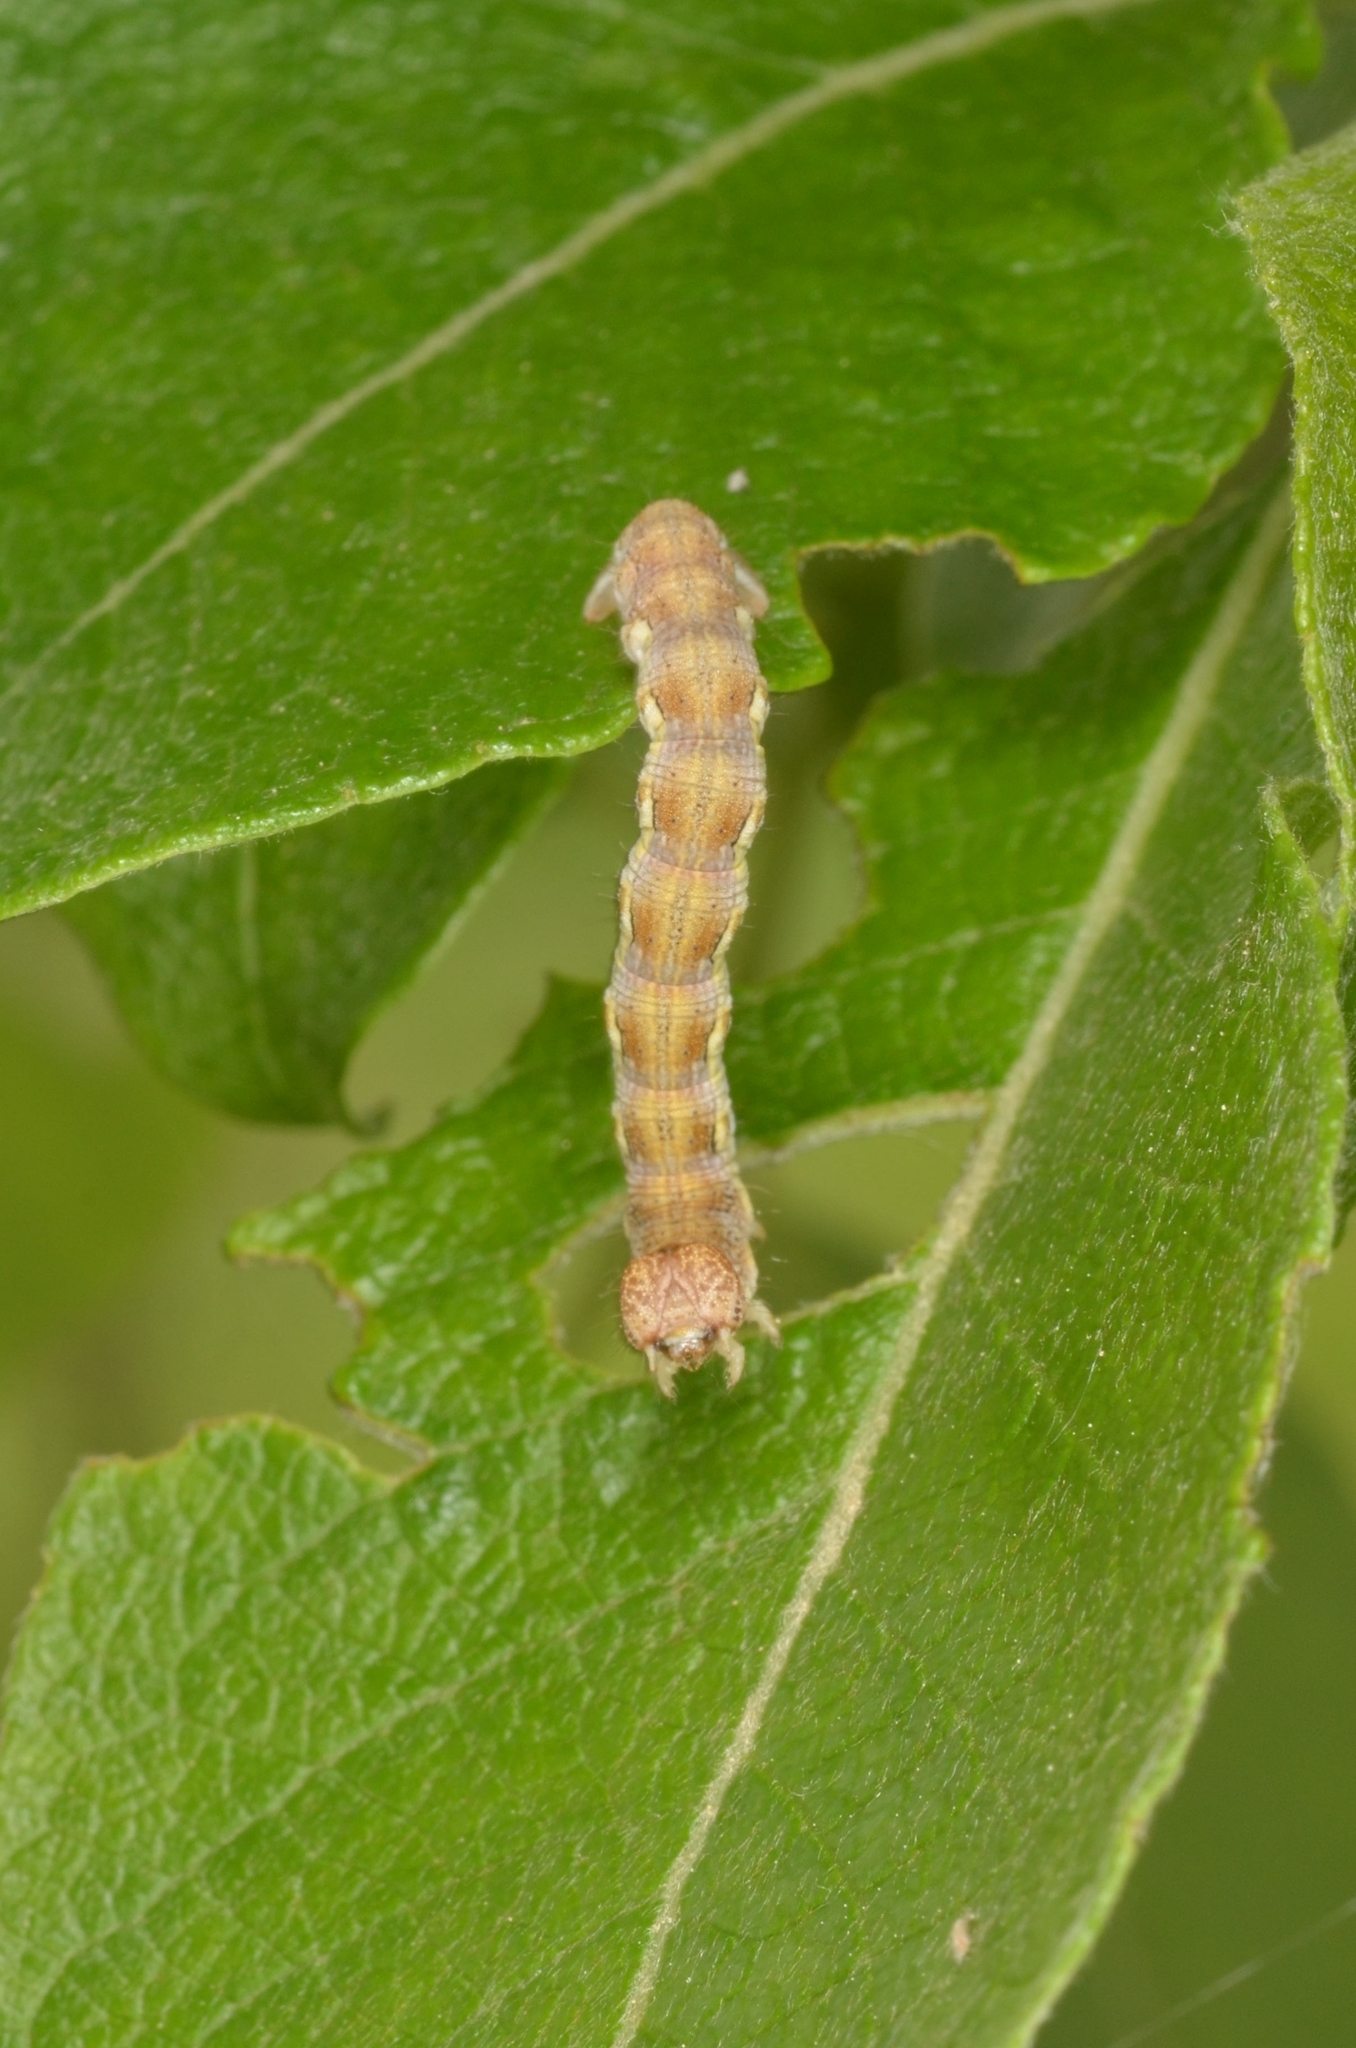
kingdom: Animalia
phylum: Arthropoda
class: Insecta
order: Lepidoptera
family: Geometridae
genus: Erannis
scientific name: Erannis defoliaria
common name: Mottled umber
